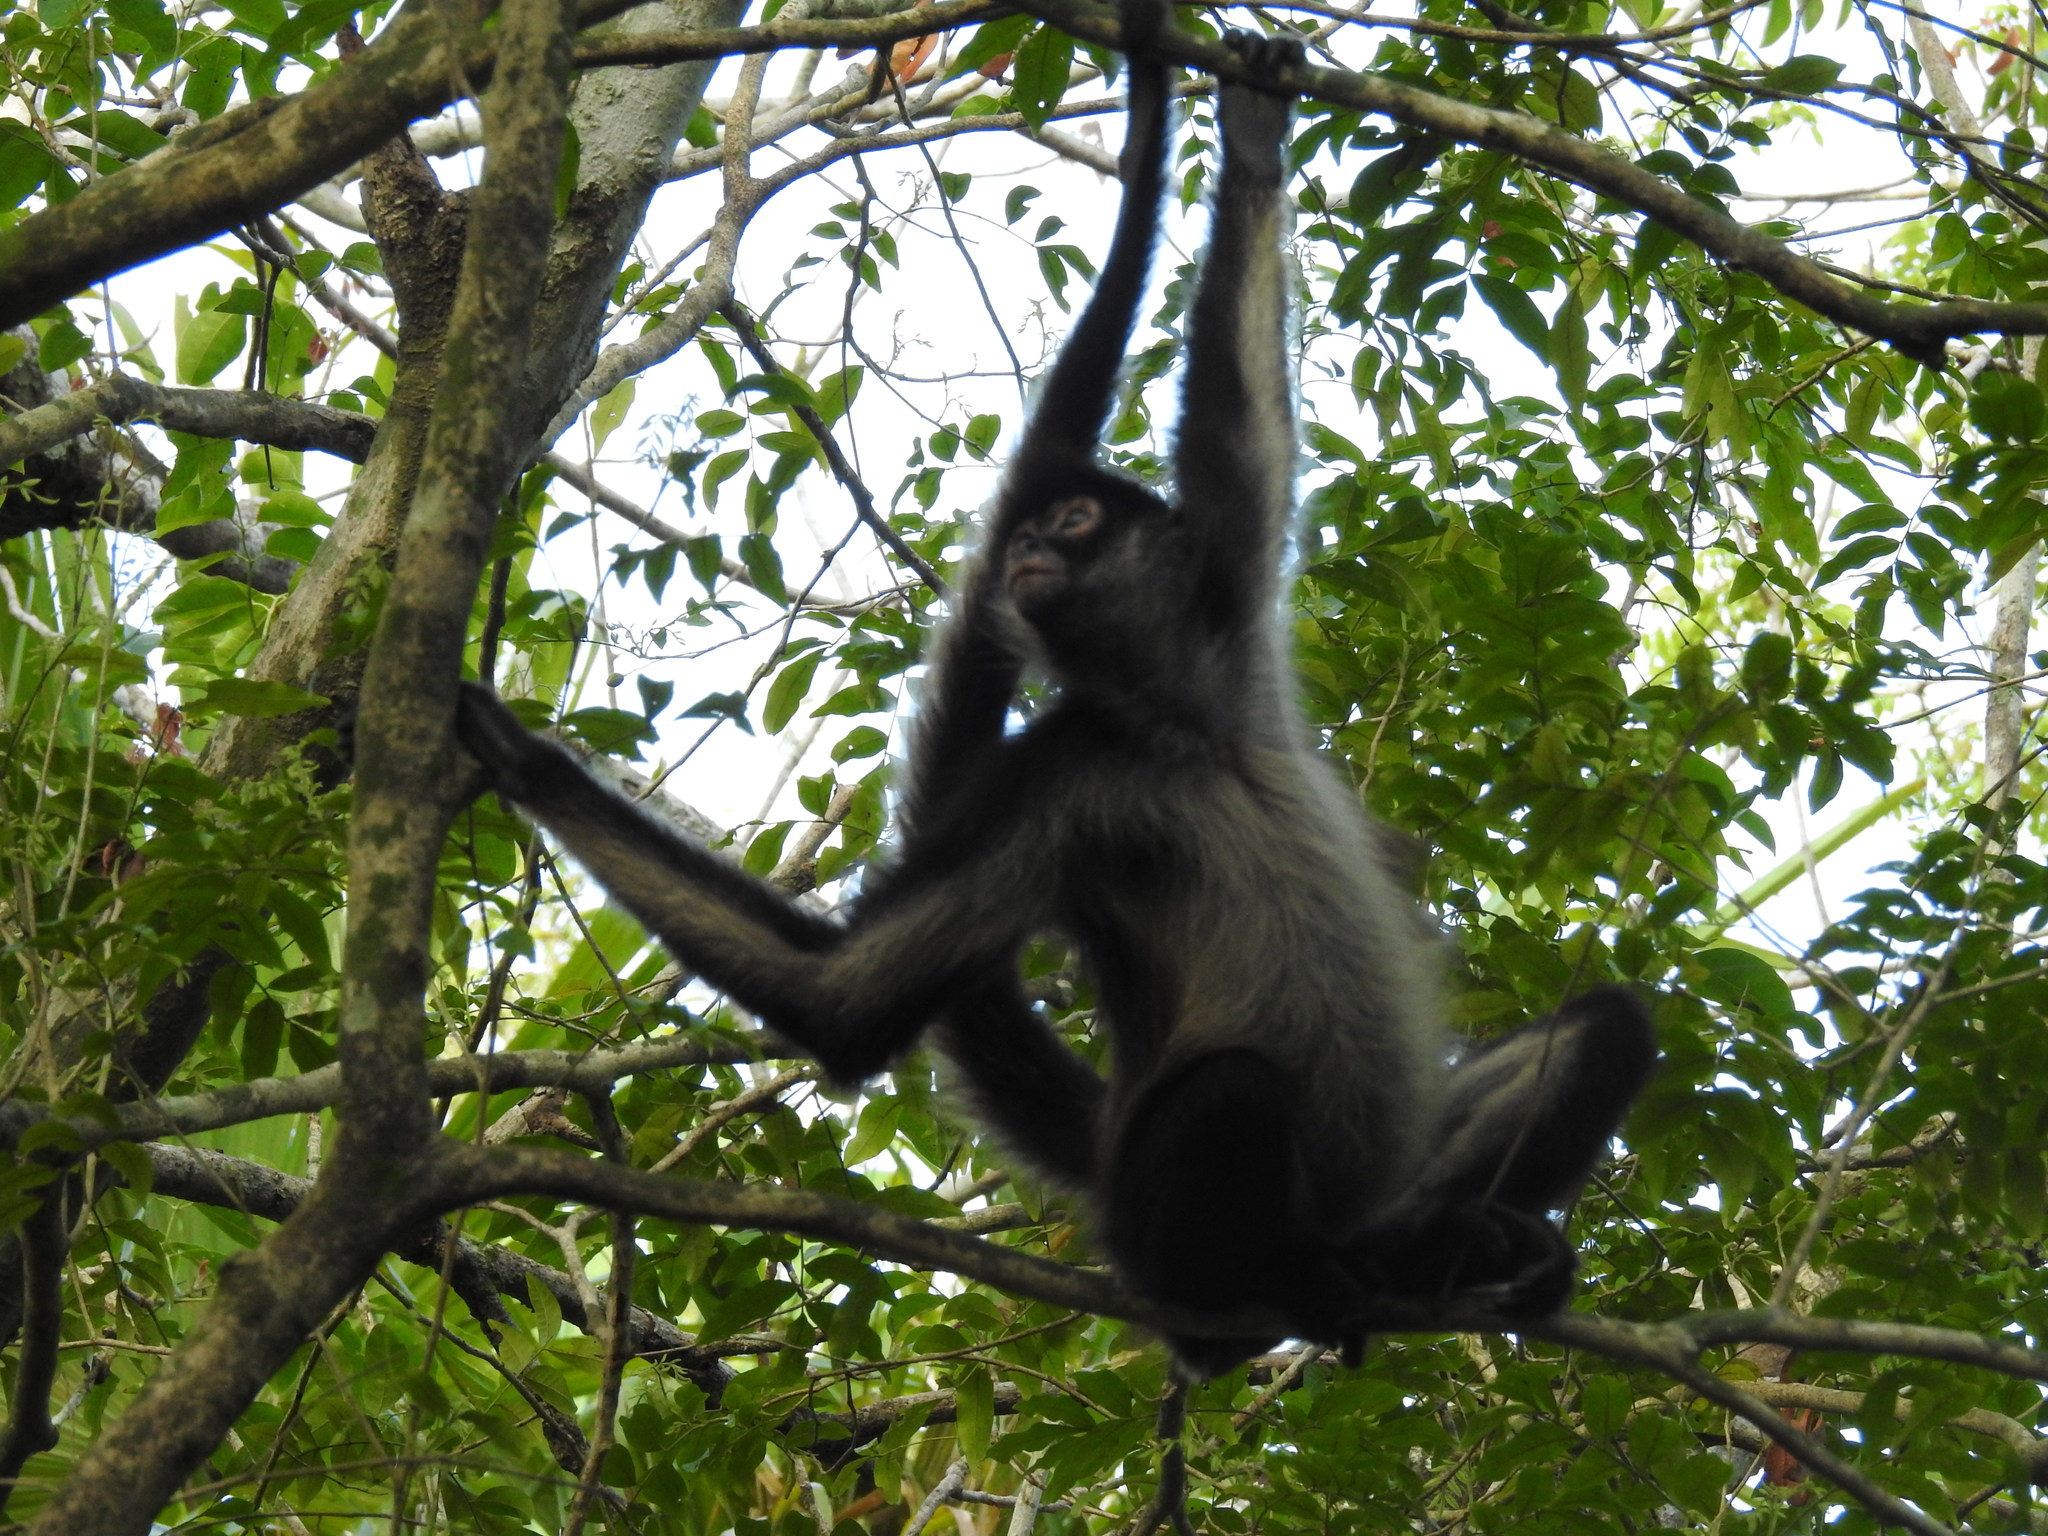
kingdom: Animalia
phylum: Chordata
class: Mammalia
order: Primates
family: Atelidae
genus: Ateles
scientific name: Ateles geoffroyi
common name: Black-handed spider monkey
